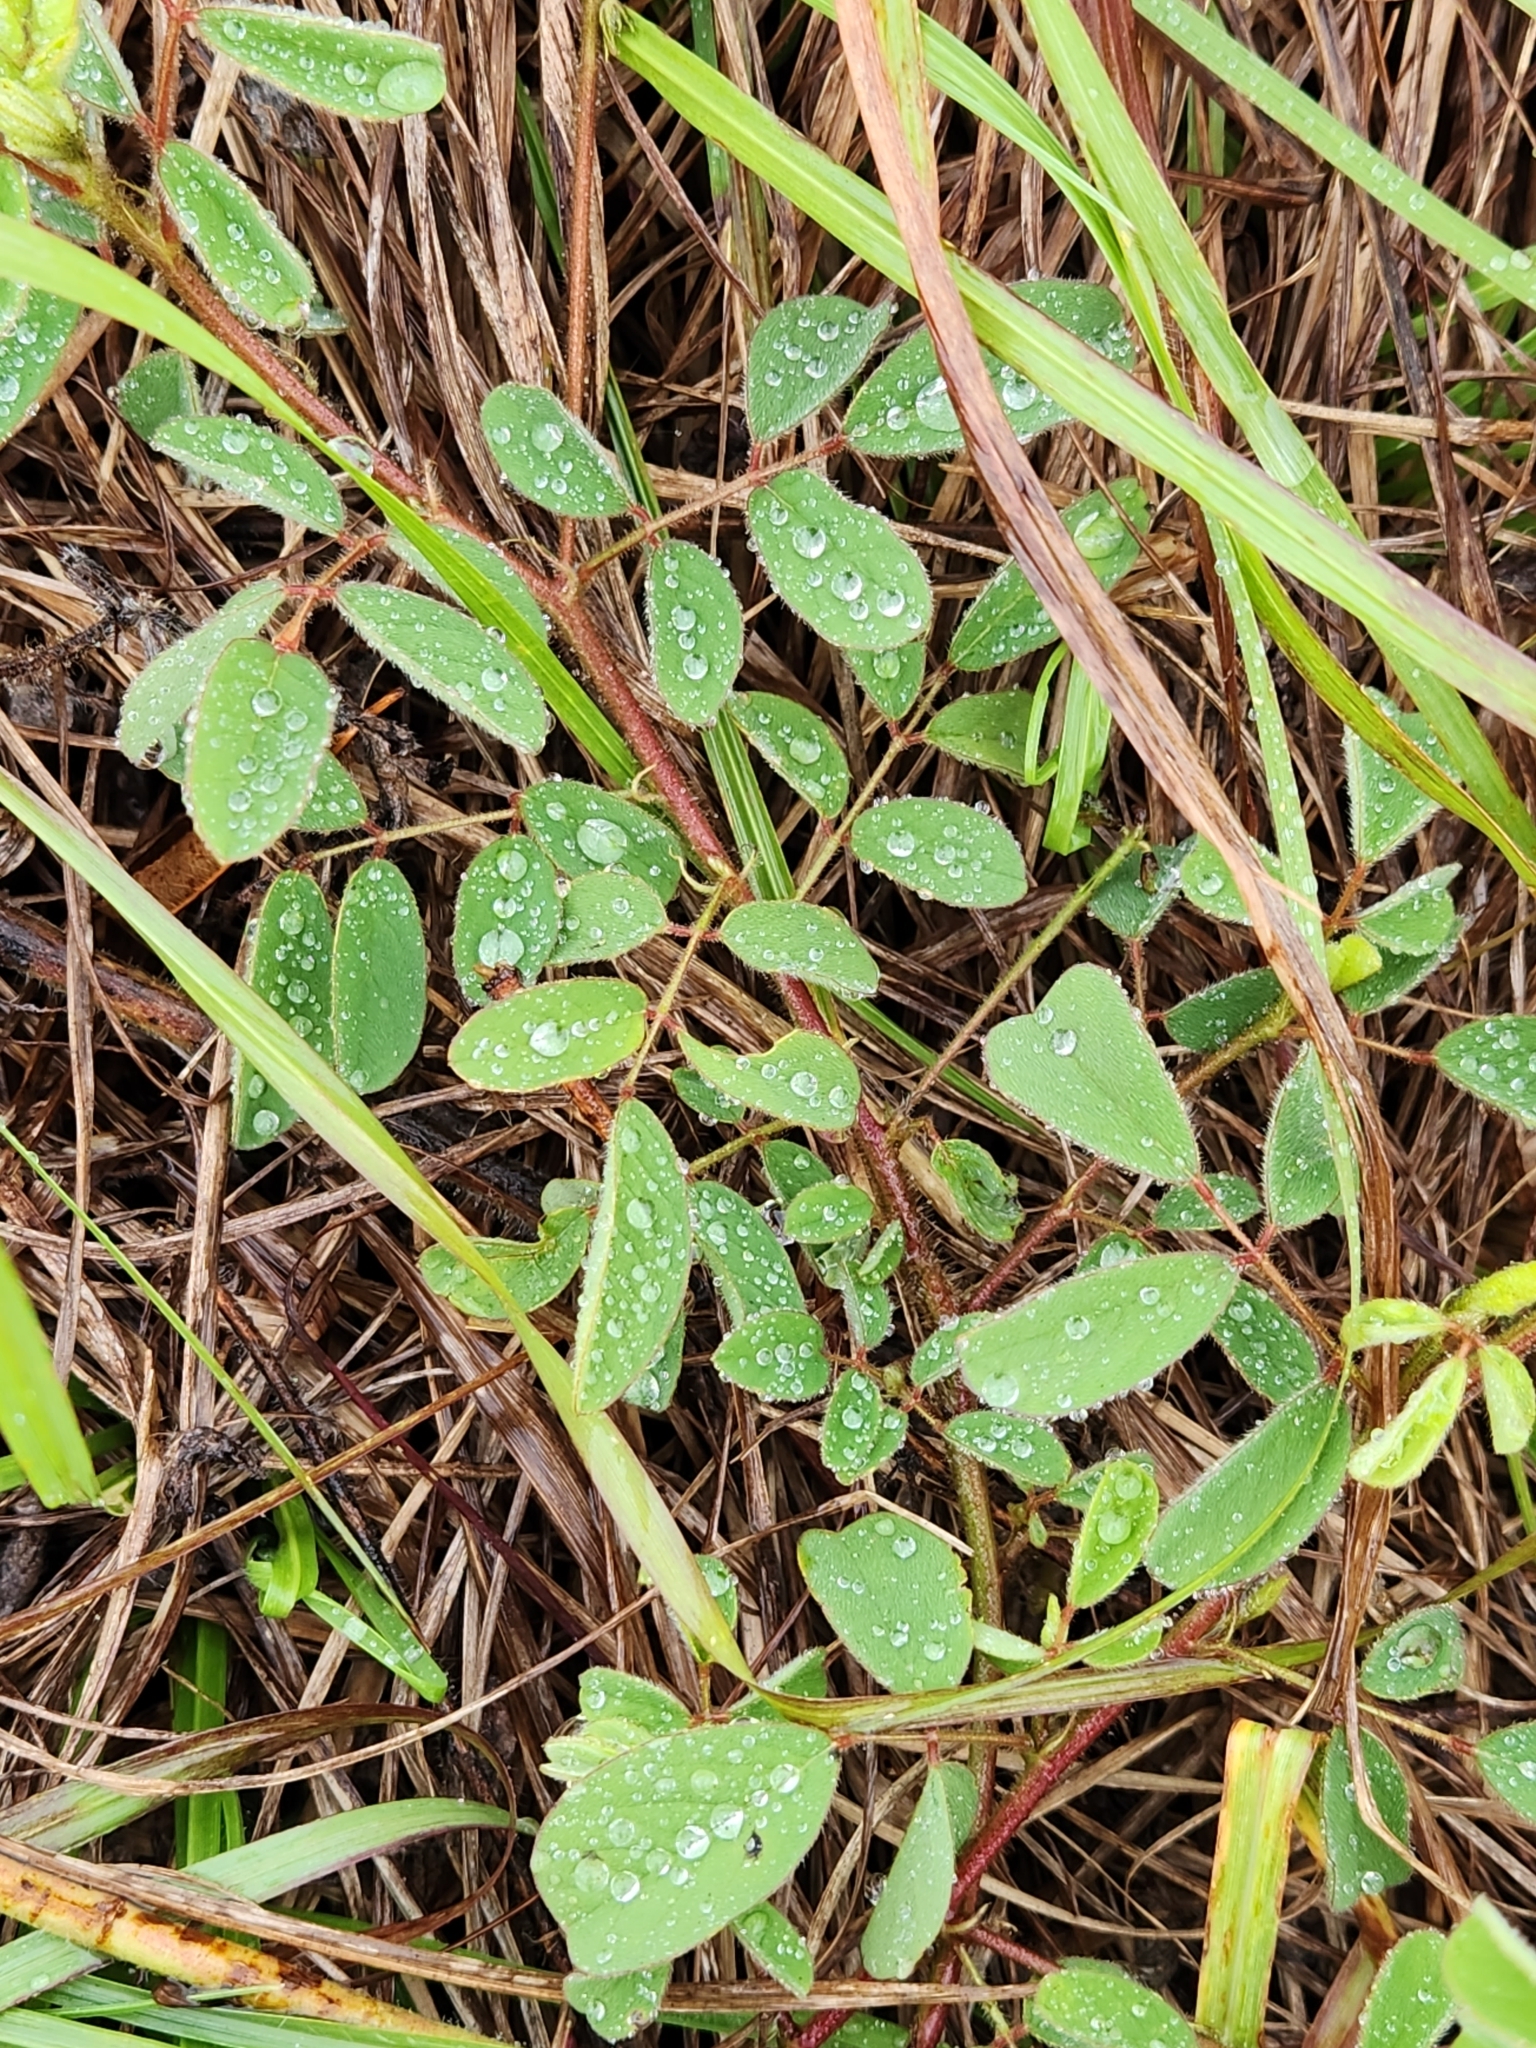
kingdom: Plantae
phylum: Tracheophyta
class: Magnoliopsida
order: Fabales
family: Fabaceae
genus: Indigofera
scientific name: Indigofera hirsuta
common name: Hairy indigo
